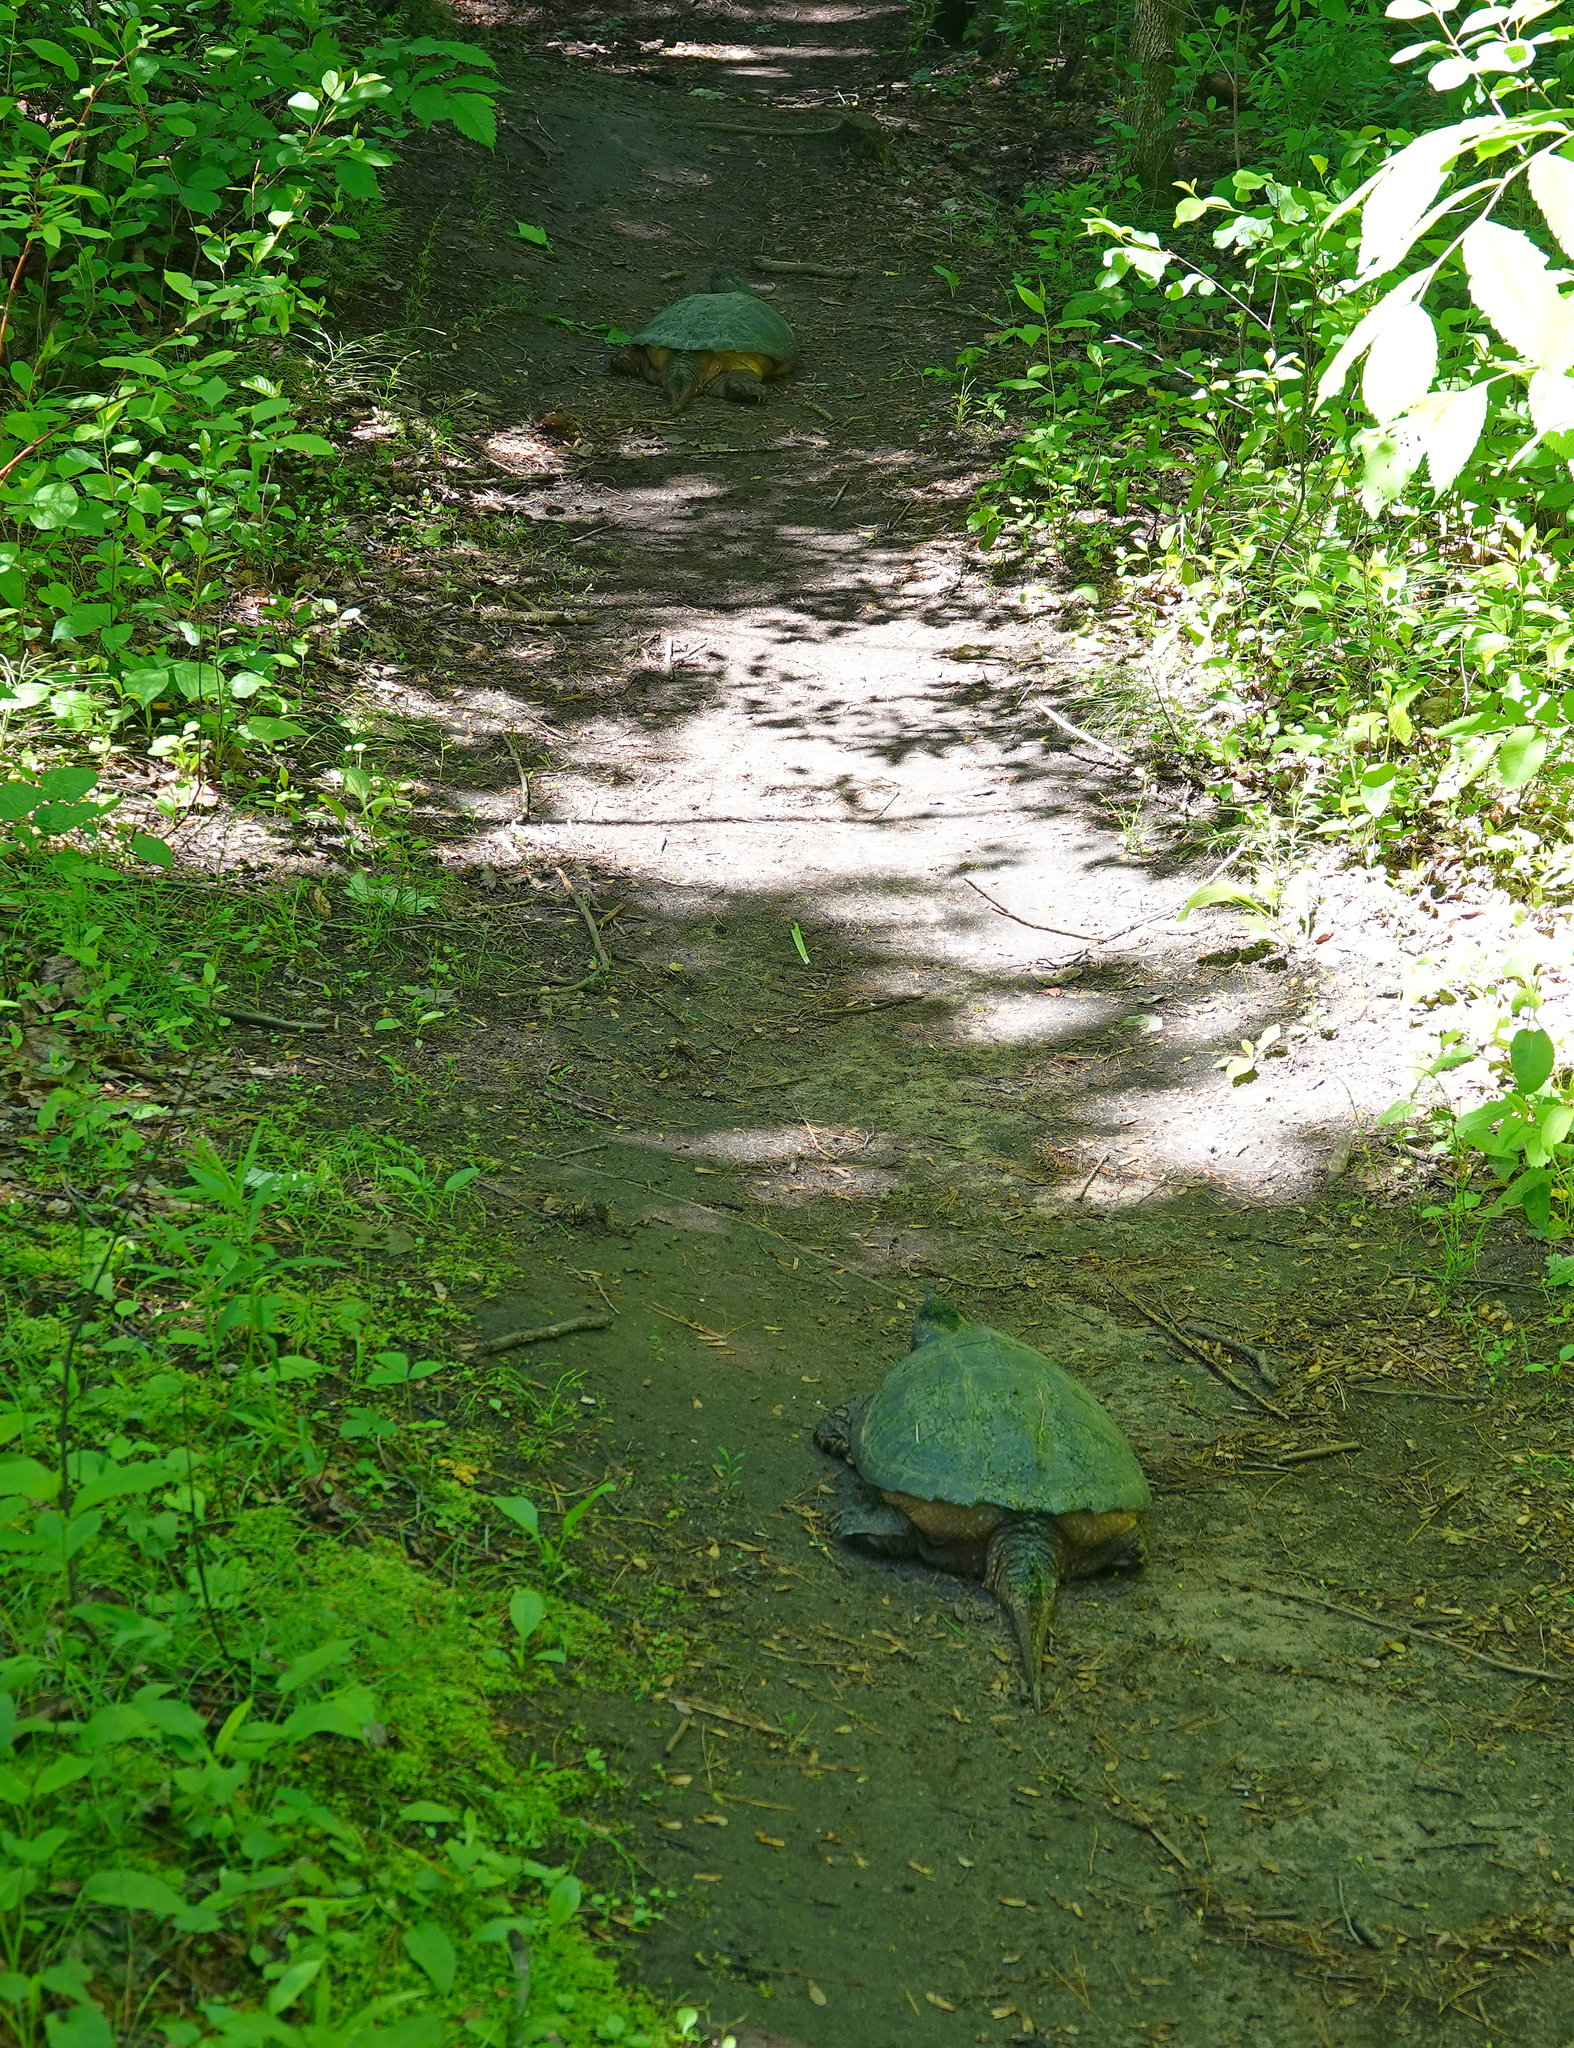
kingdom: Animalia
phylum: Chordata
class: Testudines
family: Chelydridae
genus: Chelydra
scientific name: Chelydra serpentina
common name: Common snapping turtle
